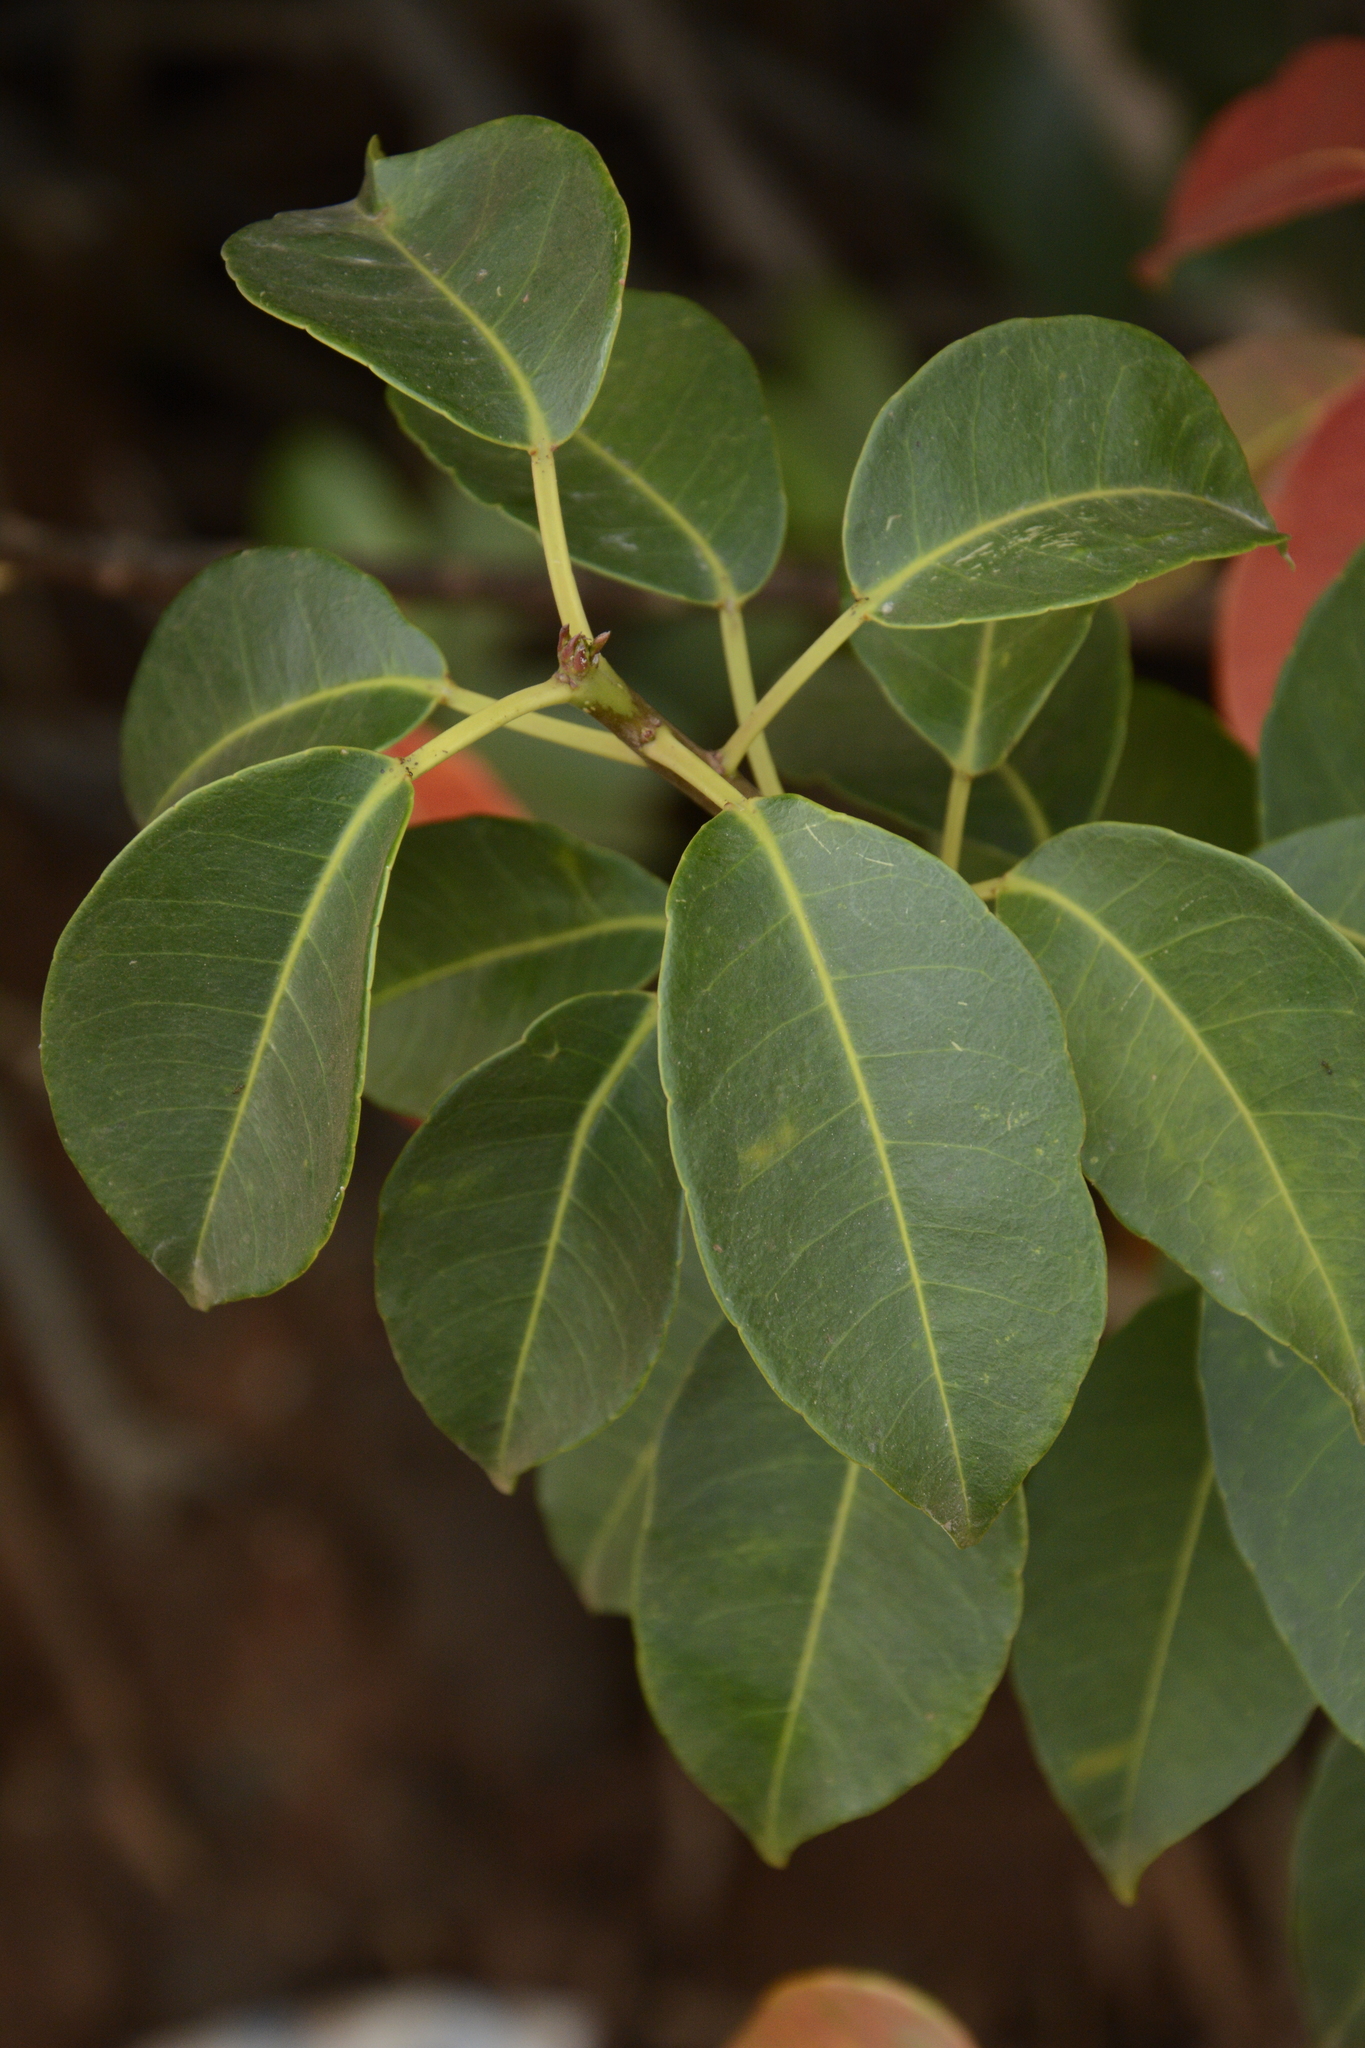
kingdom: Plantae
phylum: Tracheophyta
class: Magnoliopsida
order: Malpighiales
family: Euphorbiaceae
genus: Excoecaria
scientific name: Excoecaria agallocha
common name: River poisontree
